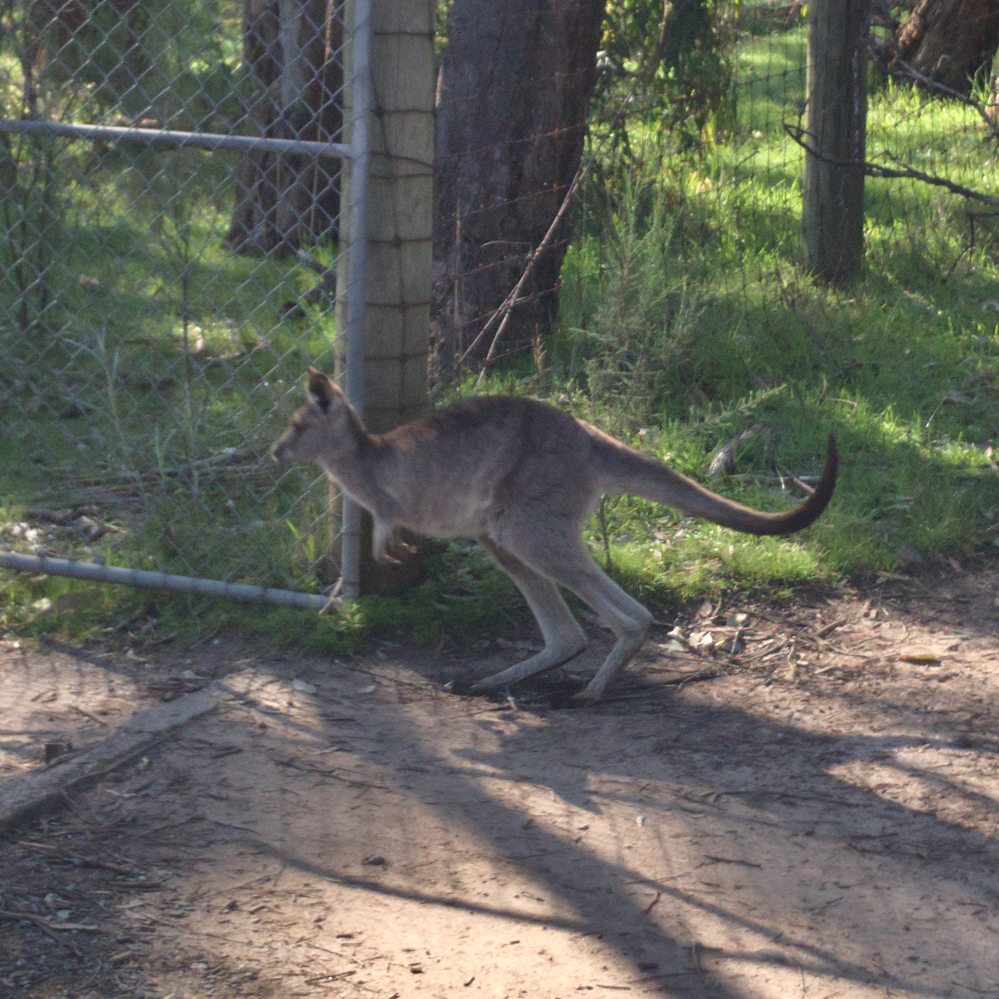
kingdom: Animalia
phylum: Chordata
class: Mammalia
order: Diprotodontia
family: Macropodidae
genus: Macropus
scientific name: Macropus giganteus
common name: Eastern grey kangaroo
